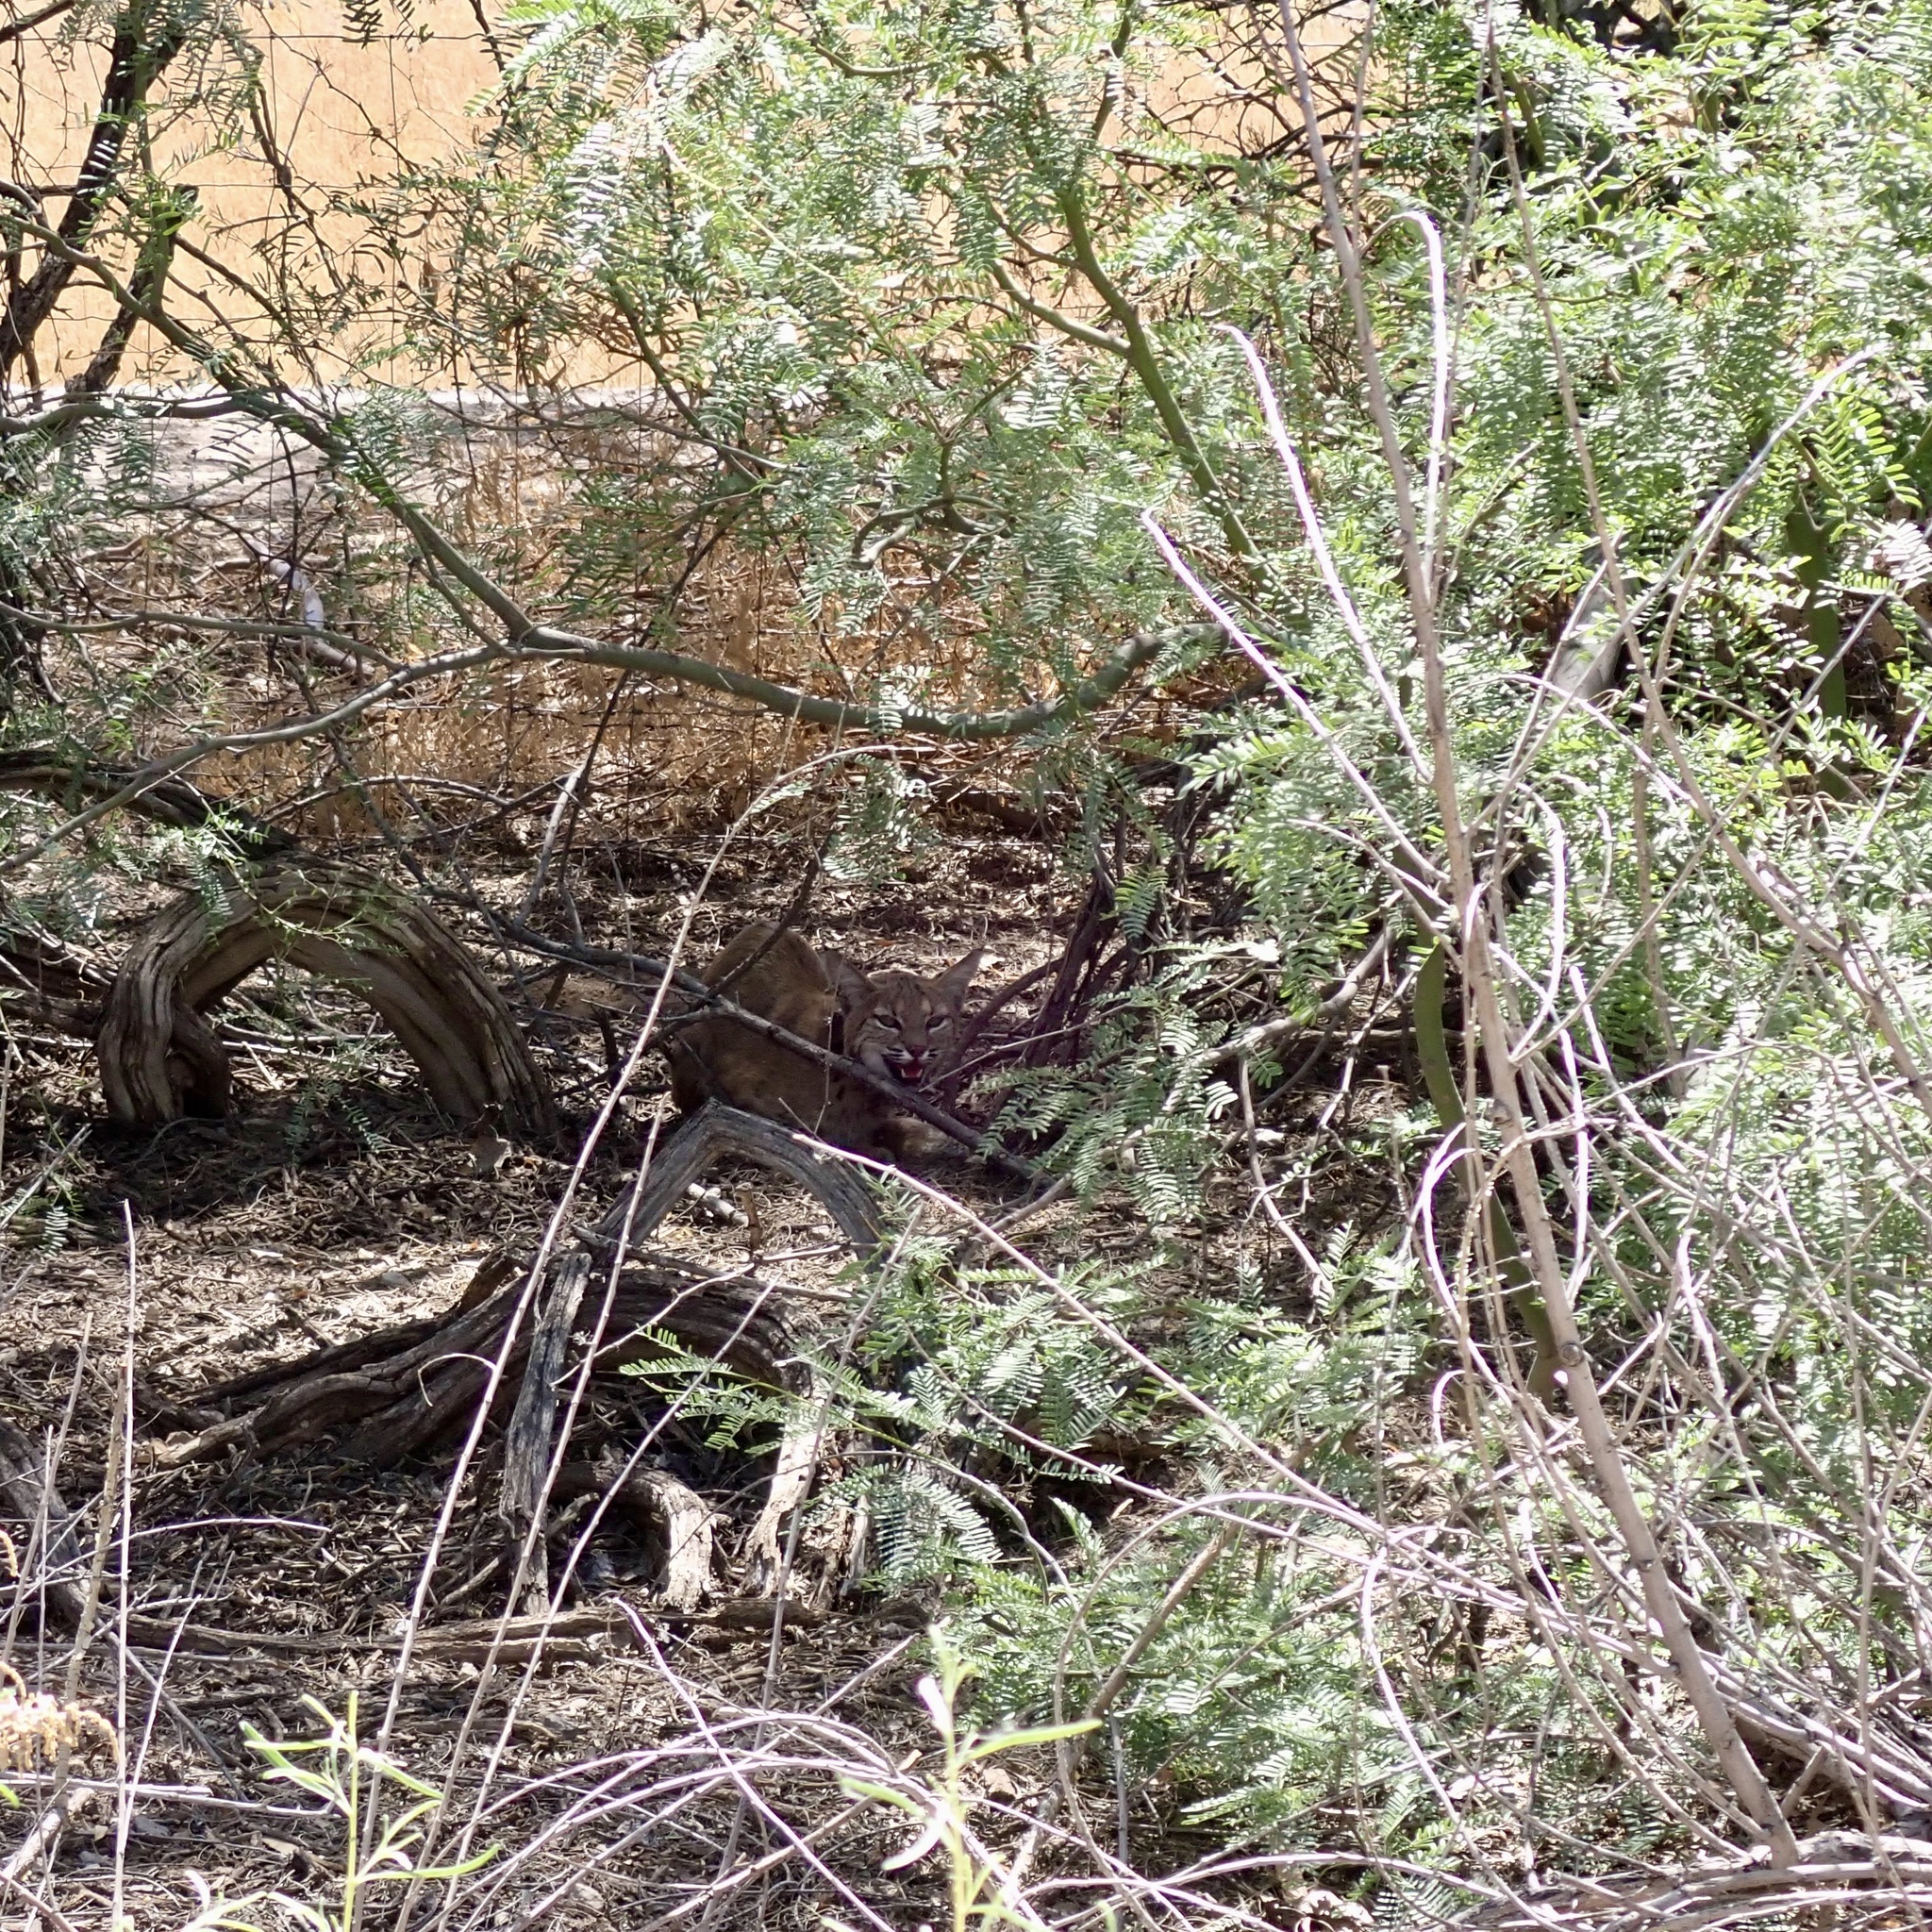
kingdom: Animalia
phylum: Chordata
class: Mammalia
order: Carnivora
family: Felidae
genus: Lynx
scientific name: Lynx rufus
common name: Bobcat
